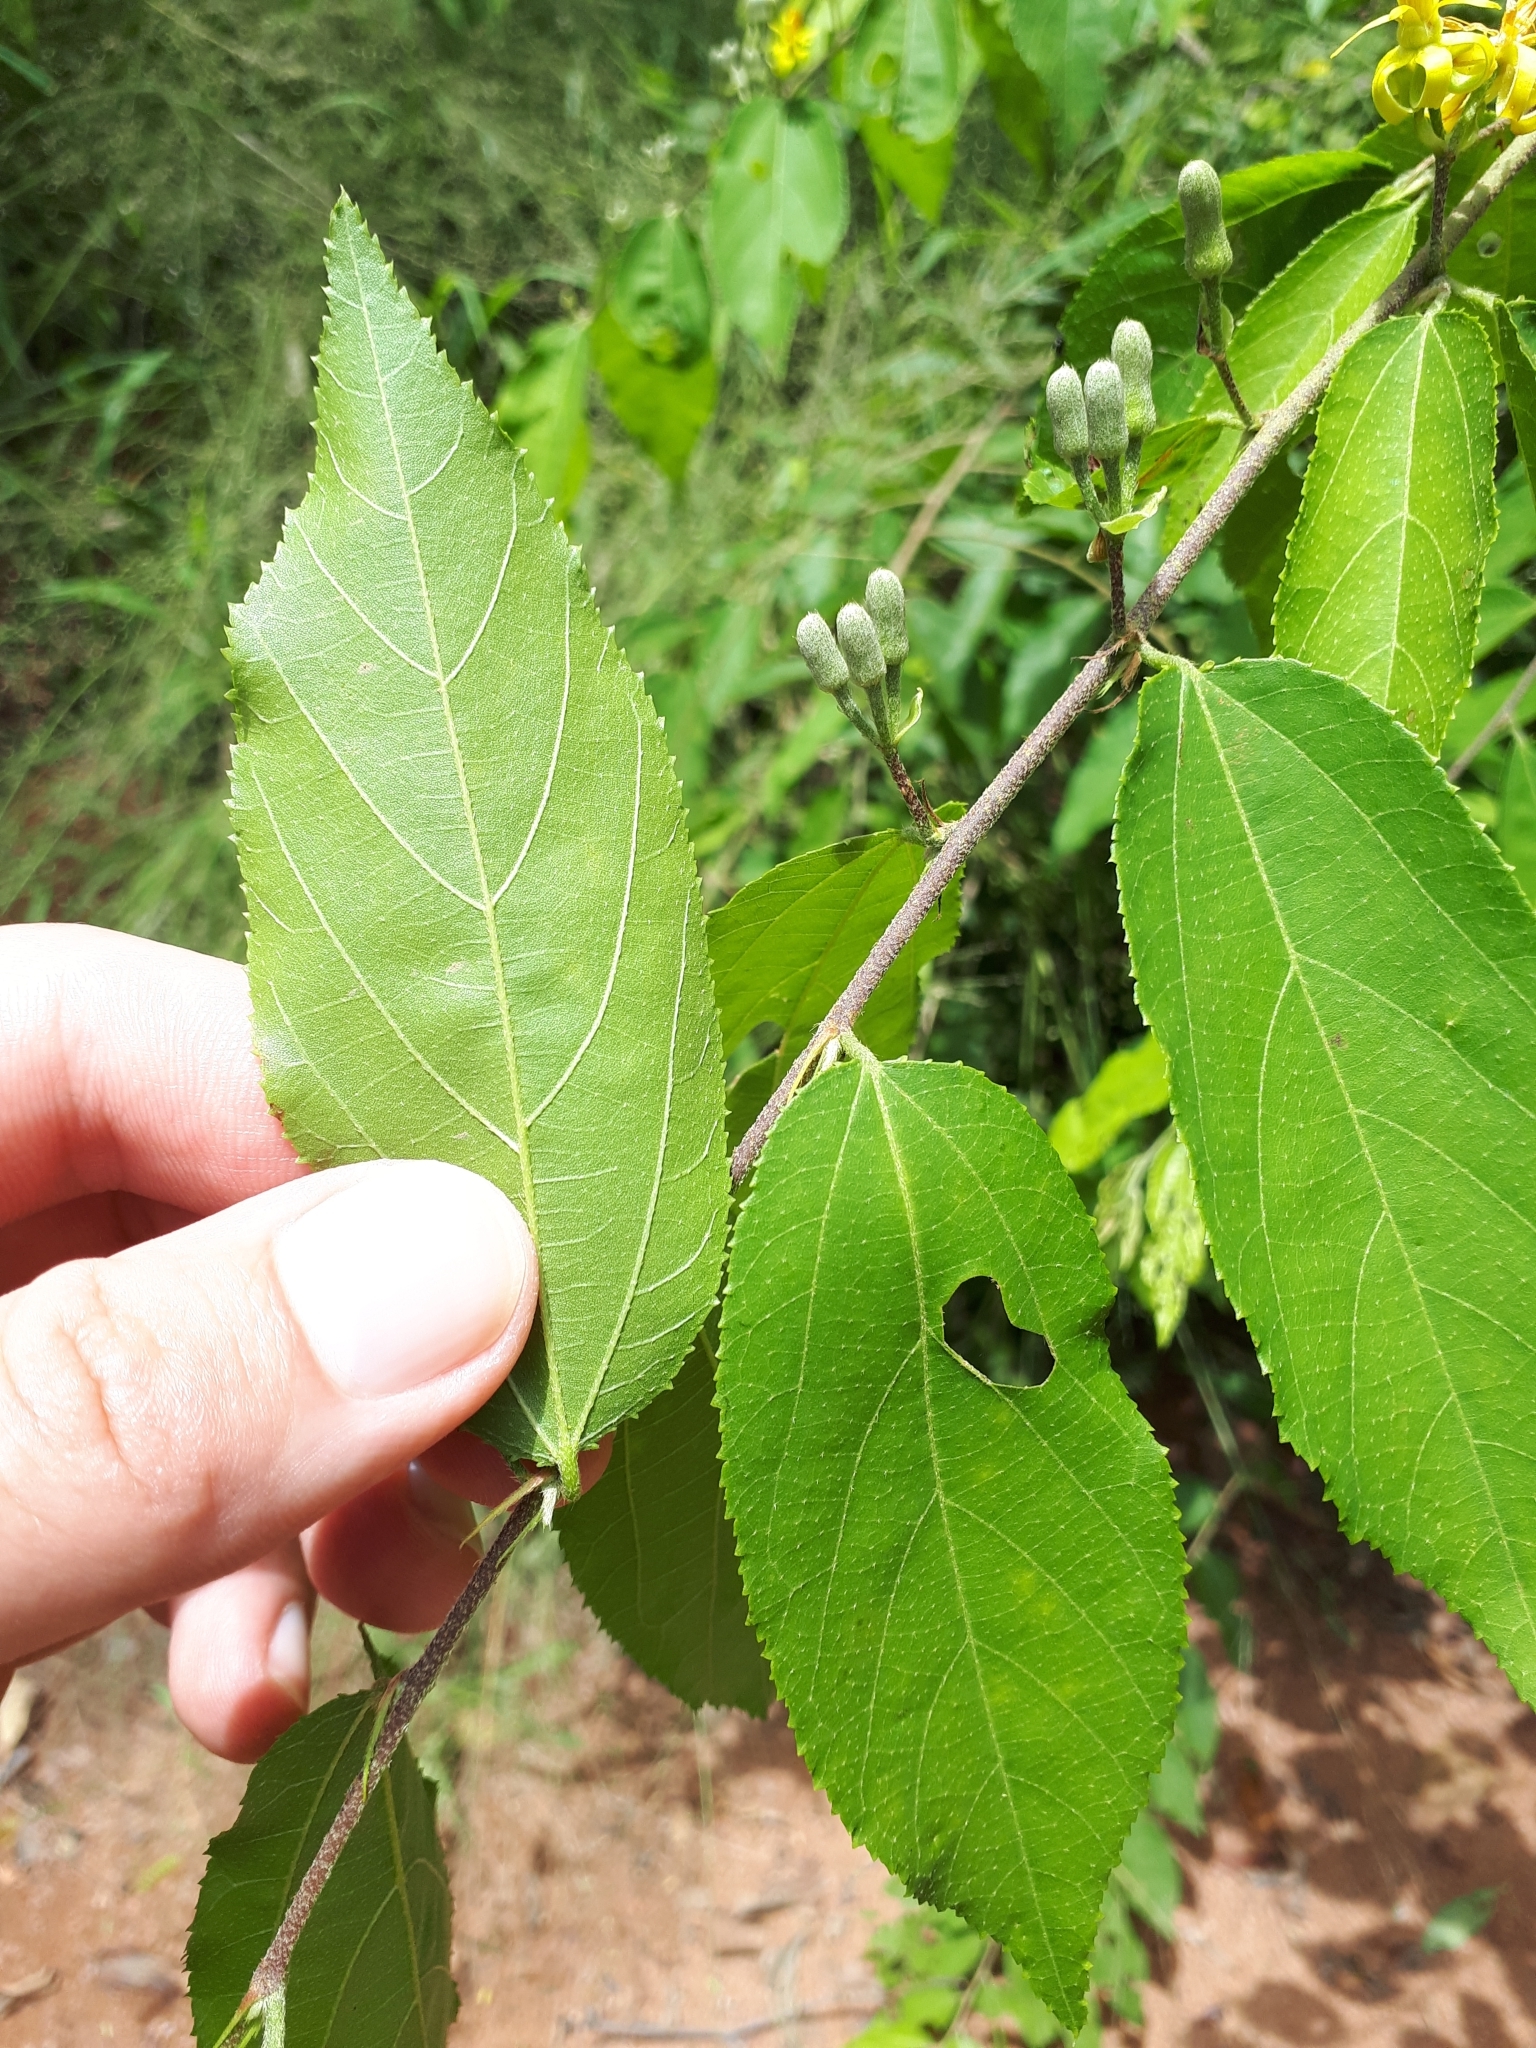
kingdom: Plantae
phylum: Tracheophyta
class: Magnoliopsida
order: Malvales
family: Malvaceae
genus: Grewia
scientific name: Grewia flavescens
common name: Sandpaper raisin
